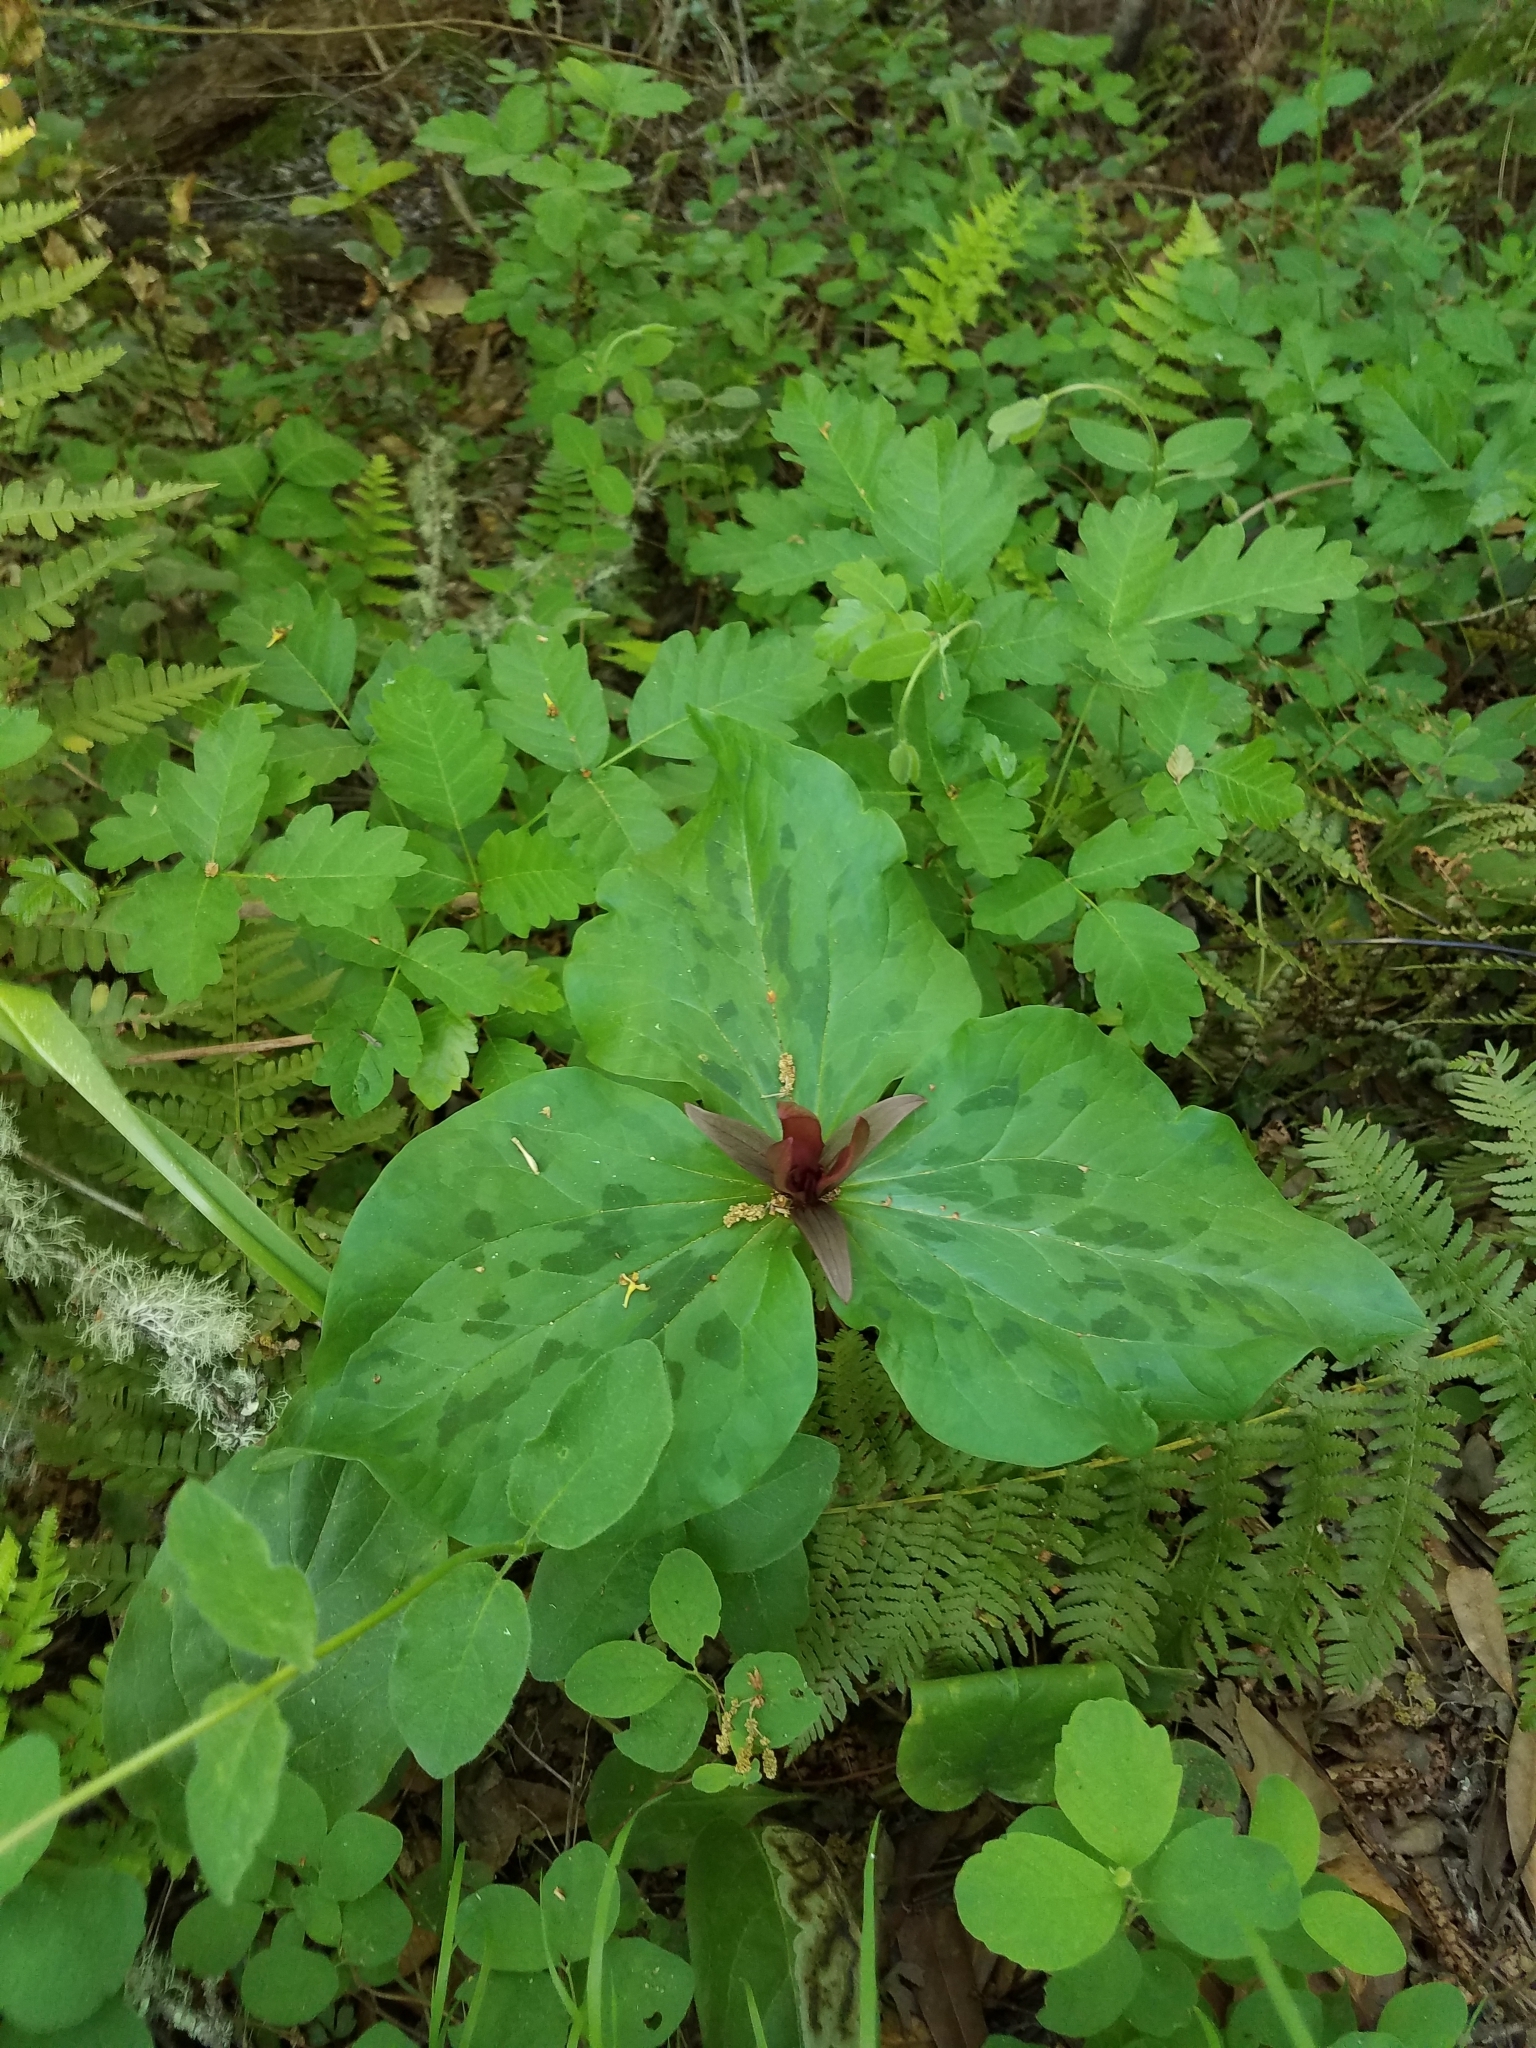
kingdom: Plantae
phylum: Tracheophyta
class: Liliopsida
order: Liliales
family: Melanthiaceae
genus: Trillium
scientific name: Trillium chloropetalum
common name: Giant trillium
